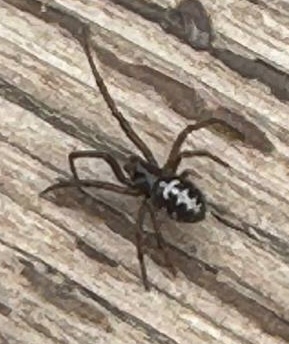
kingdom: Animalia
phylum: Arthropoda
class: Arachnida
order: Araneae
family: Theridiidae
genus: Steatoda
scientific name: Steatoda paykulliana
